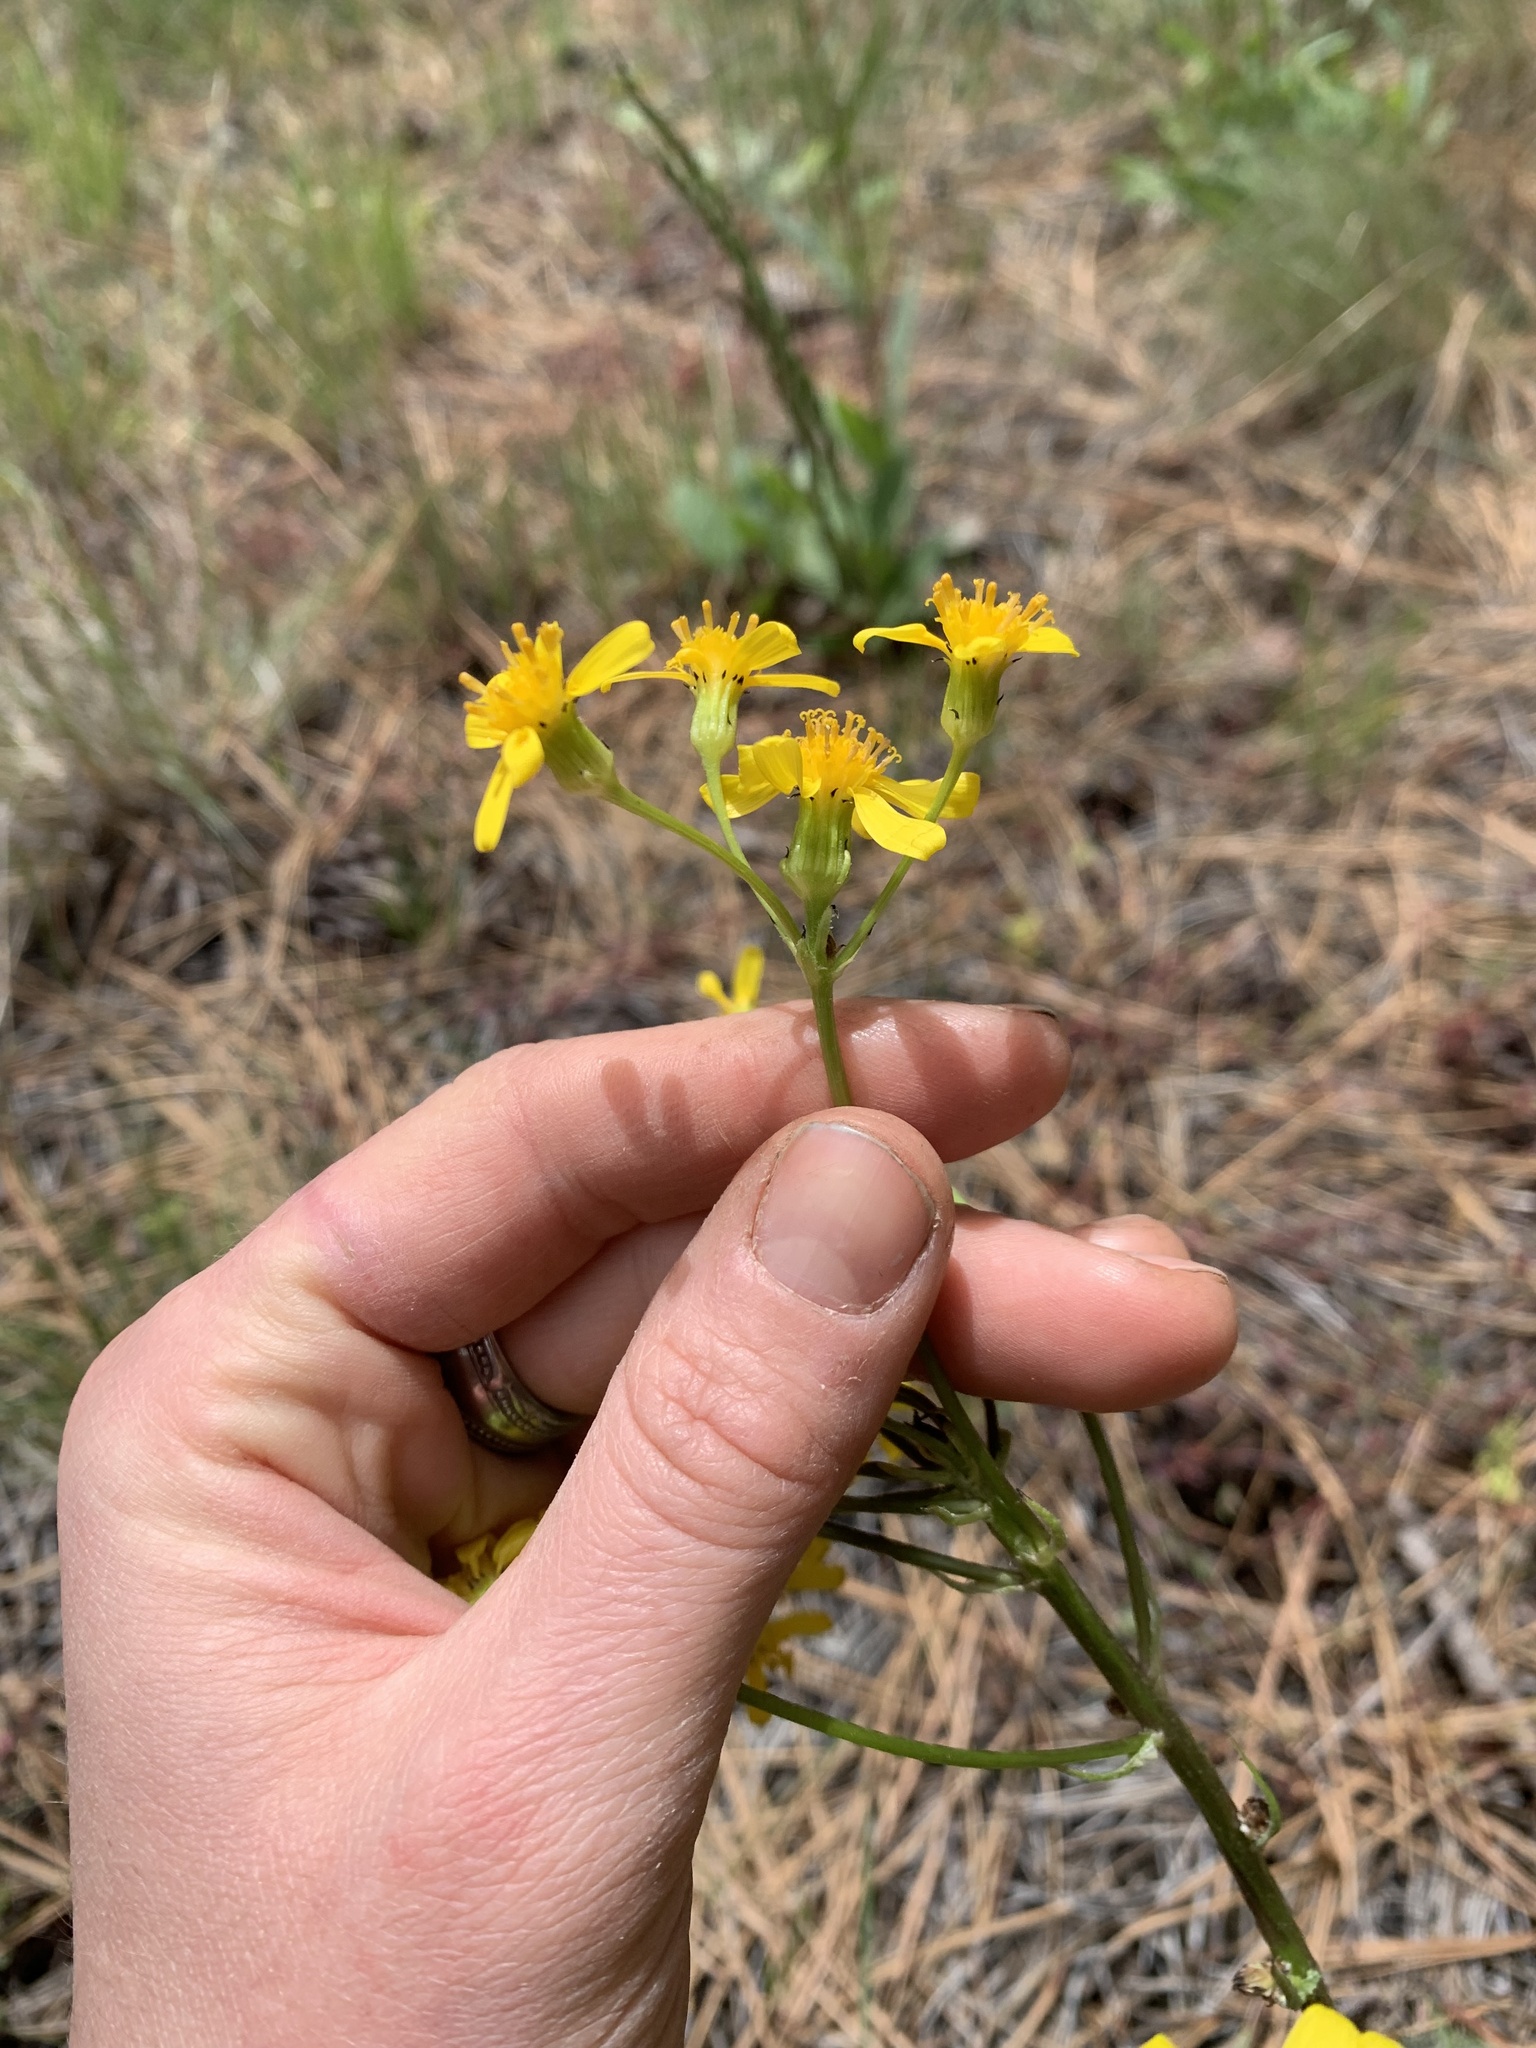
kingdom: Plantae
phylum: Tracheophyta
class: Magnoliopsida
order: Asterales
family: Asteraceae
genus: Senecio
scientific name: Senecio integerrimus
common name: Gaugeplant
